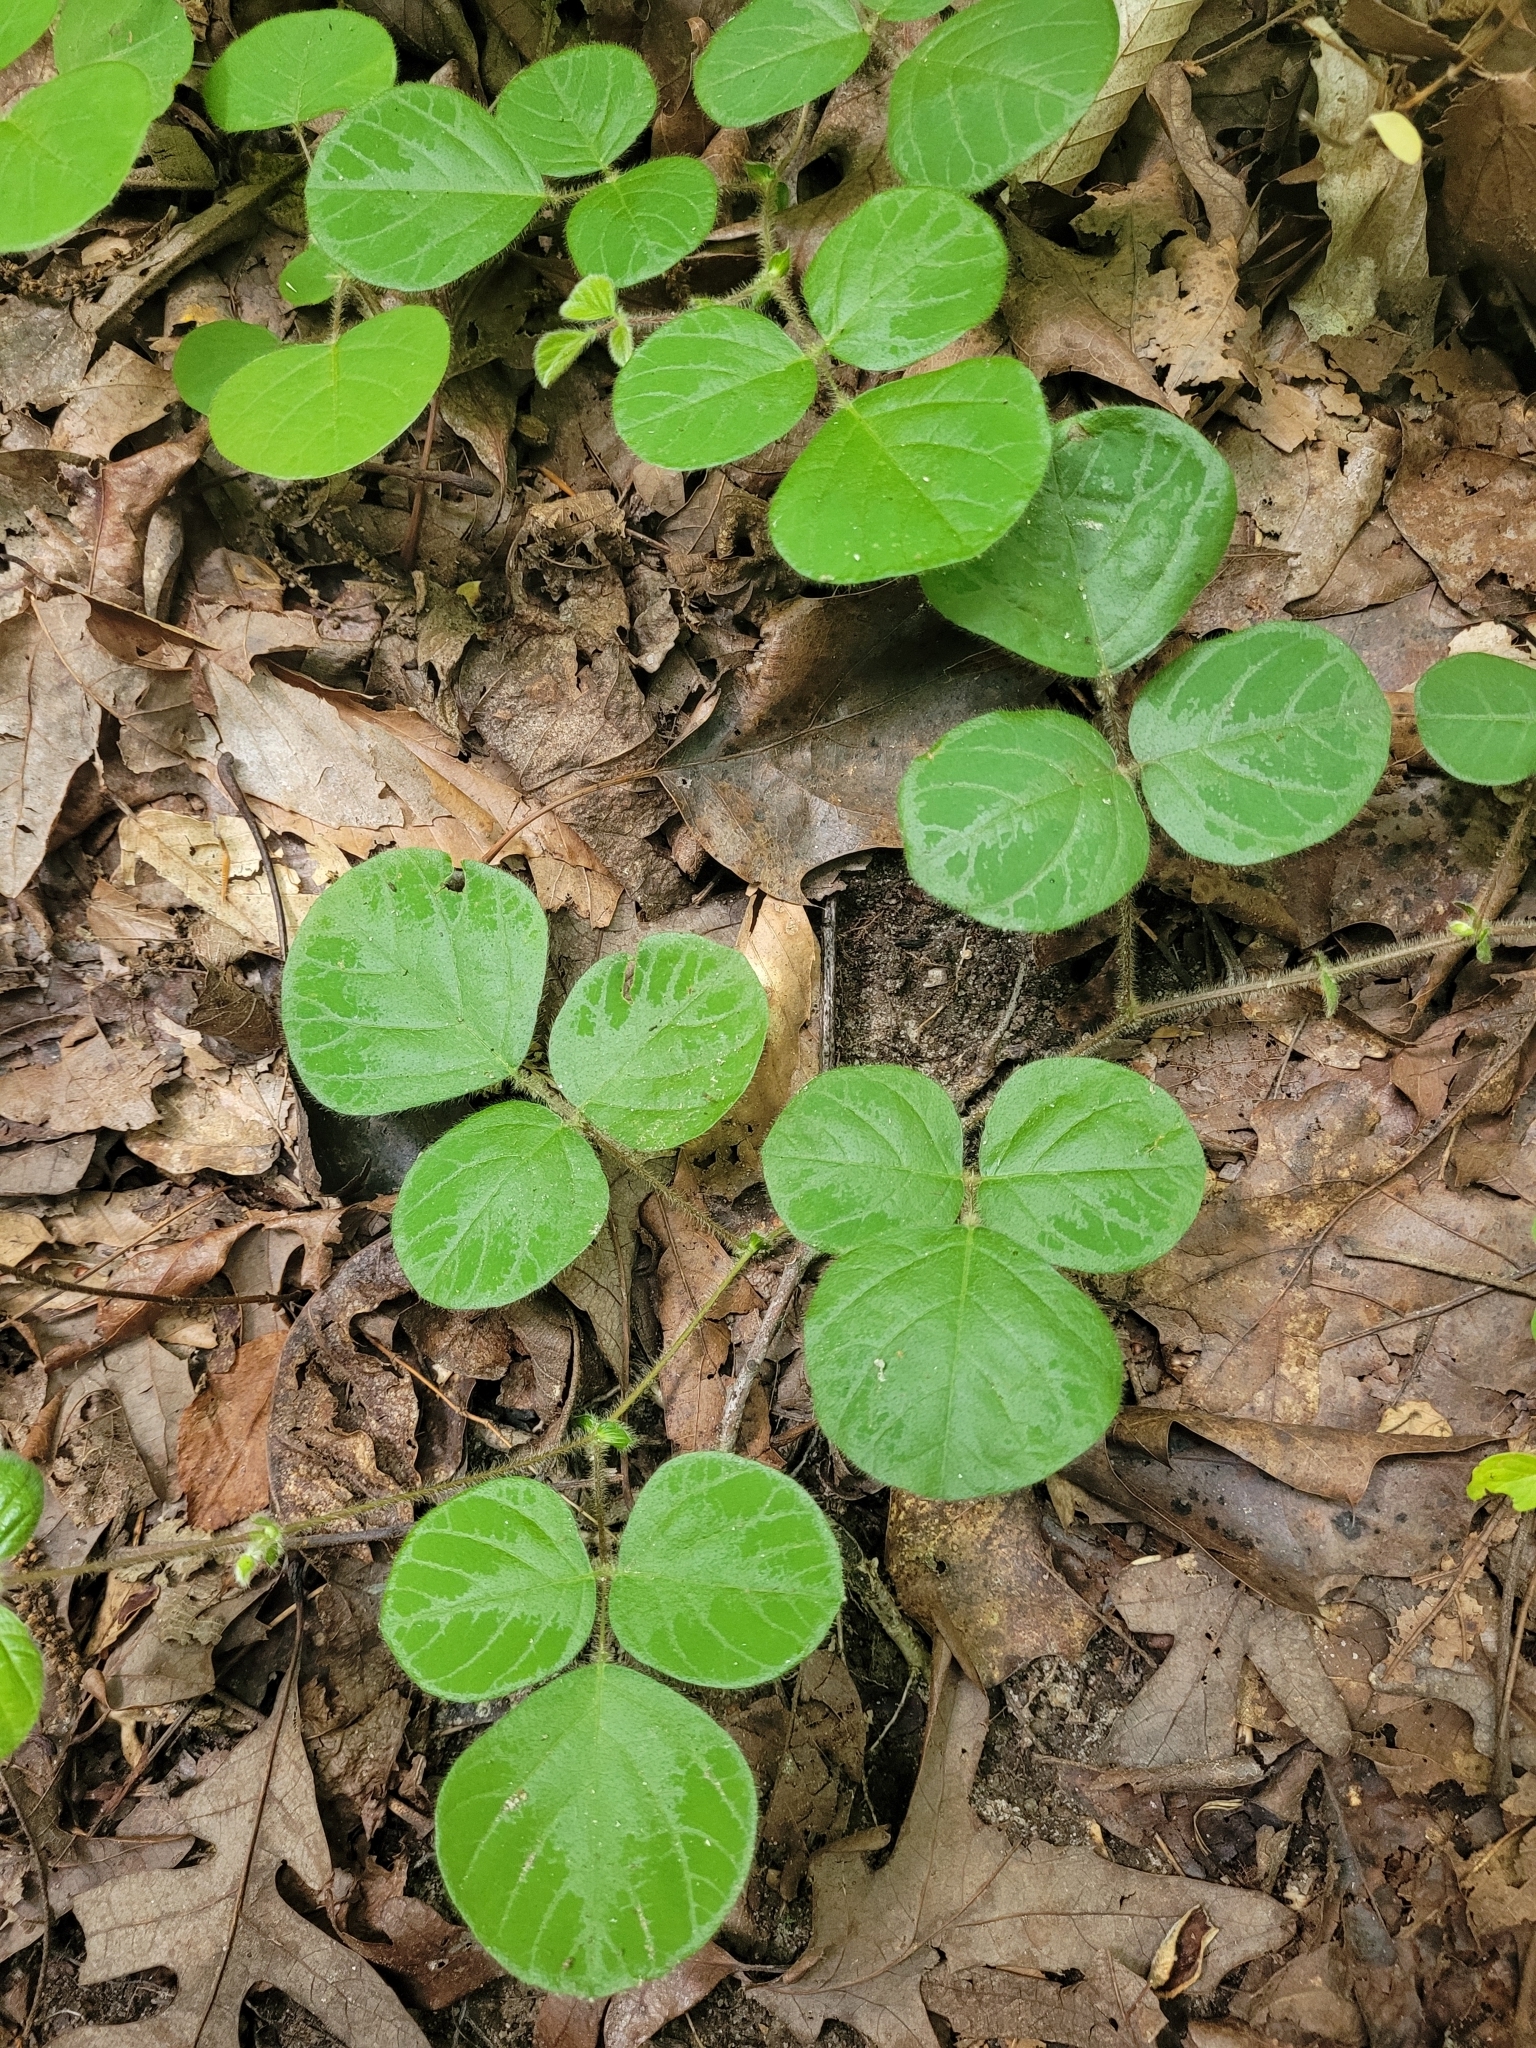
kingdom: Plantae
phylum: Tracheophyta
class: Magnoliopsida
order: Fabales
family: Fabaceae
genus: Desmodium
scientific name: Desmodium rotundifolium
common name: Dollarleaf
